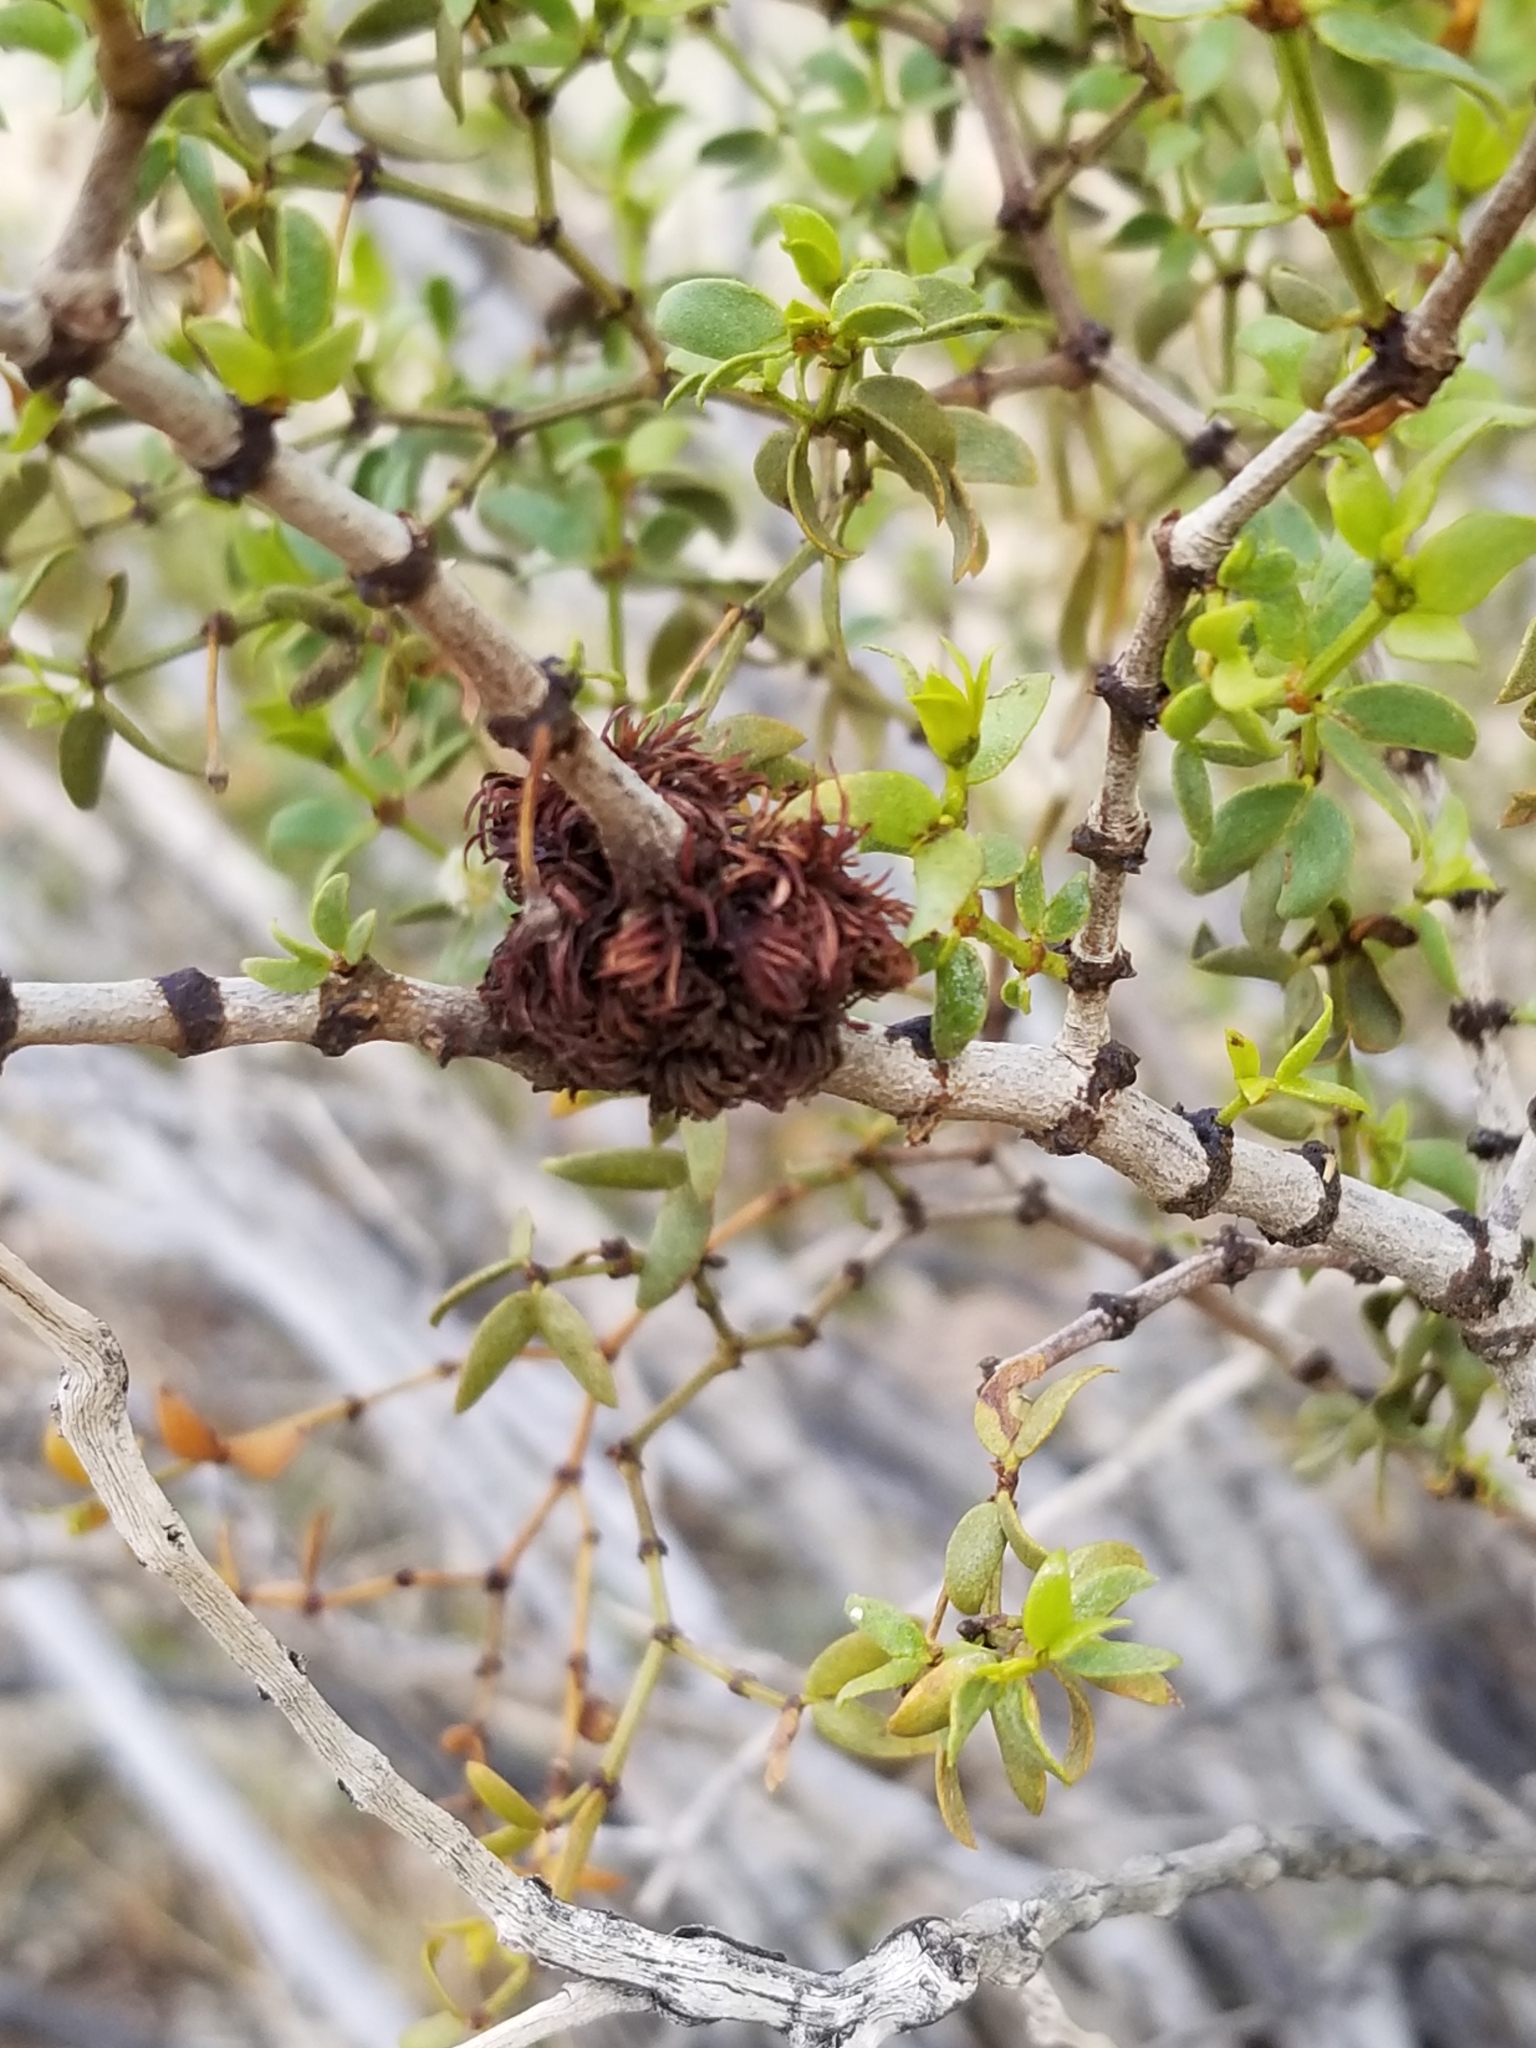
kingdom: Animalia
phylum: Arthropoda
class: Insecta
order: Diptera
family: Cecidomyiidae
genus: Asphondylia
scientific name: Asphondylia auripila
